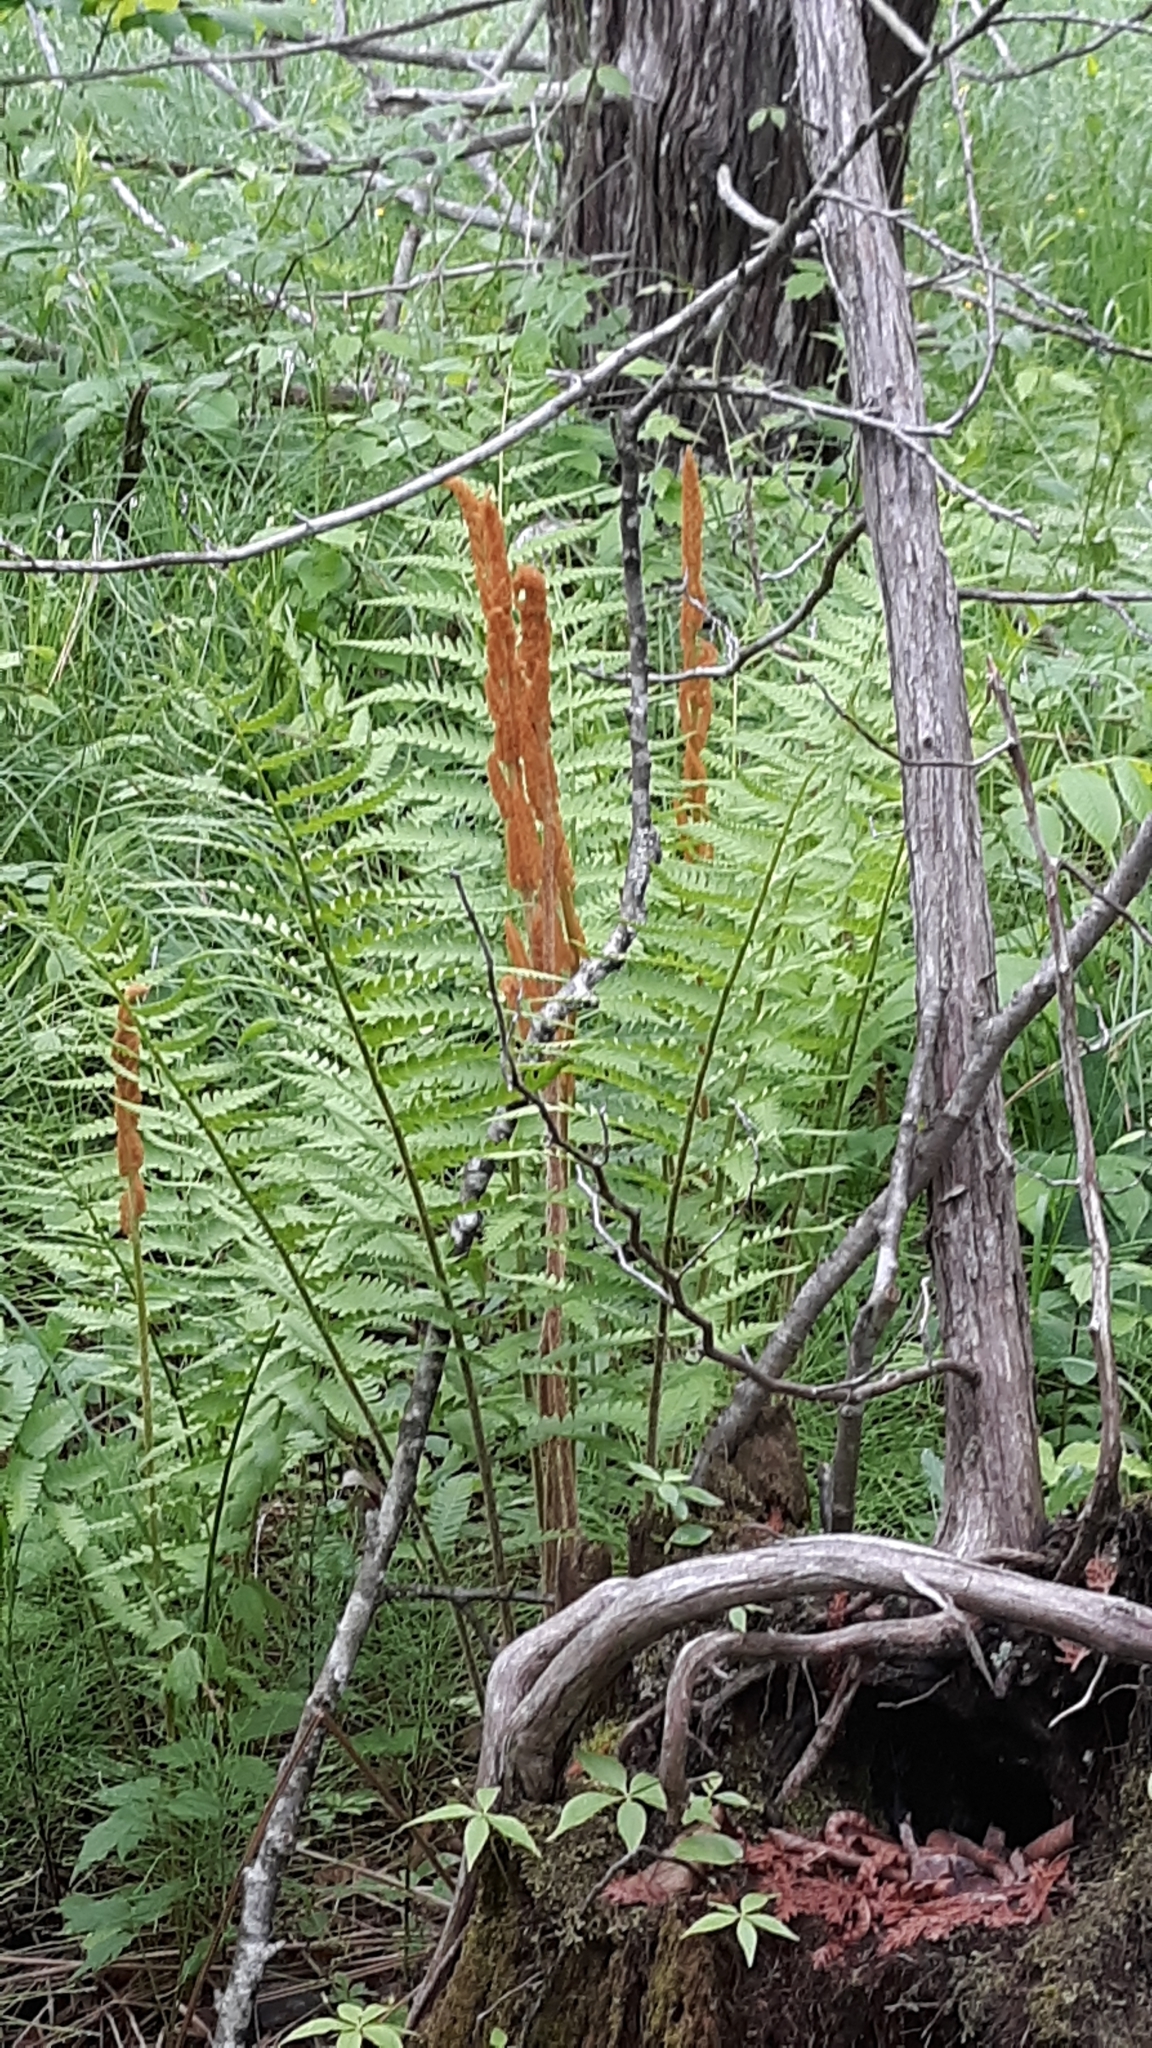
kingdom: Plantae
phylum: Tracheophyta
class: Polypodiopsida
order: Osmundales
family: Osmundaceae
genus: Osmundastrum
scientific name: Osmundastrum cinnamomeum
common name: Cinnamon fern
